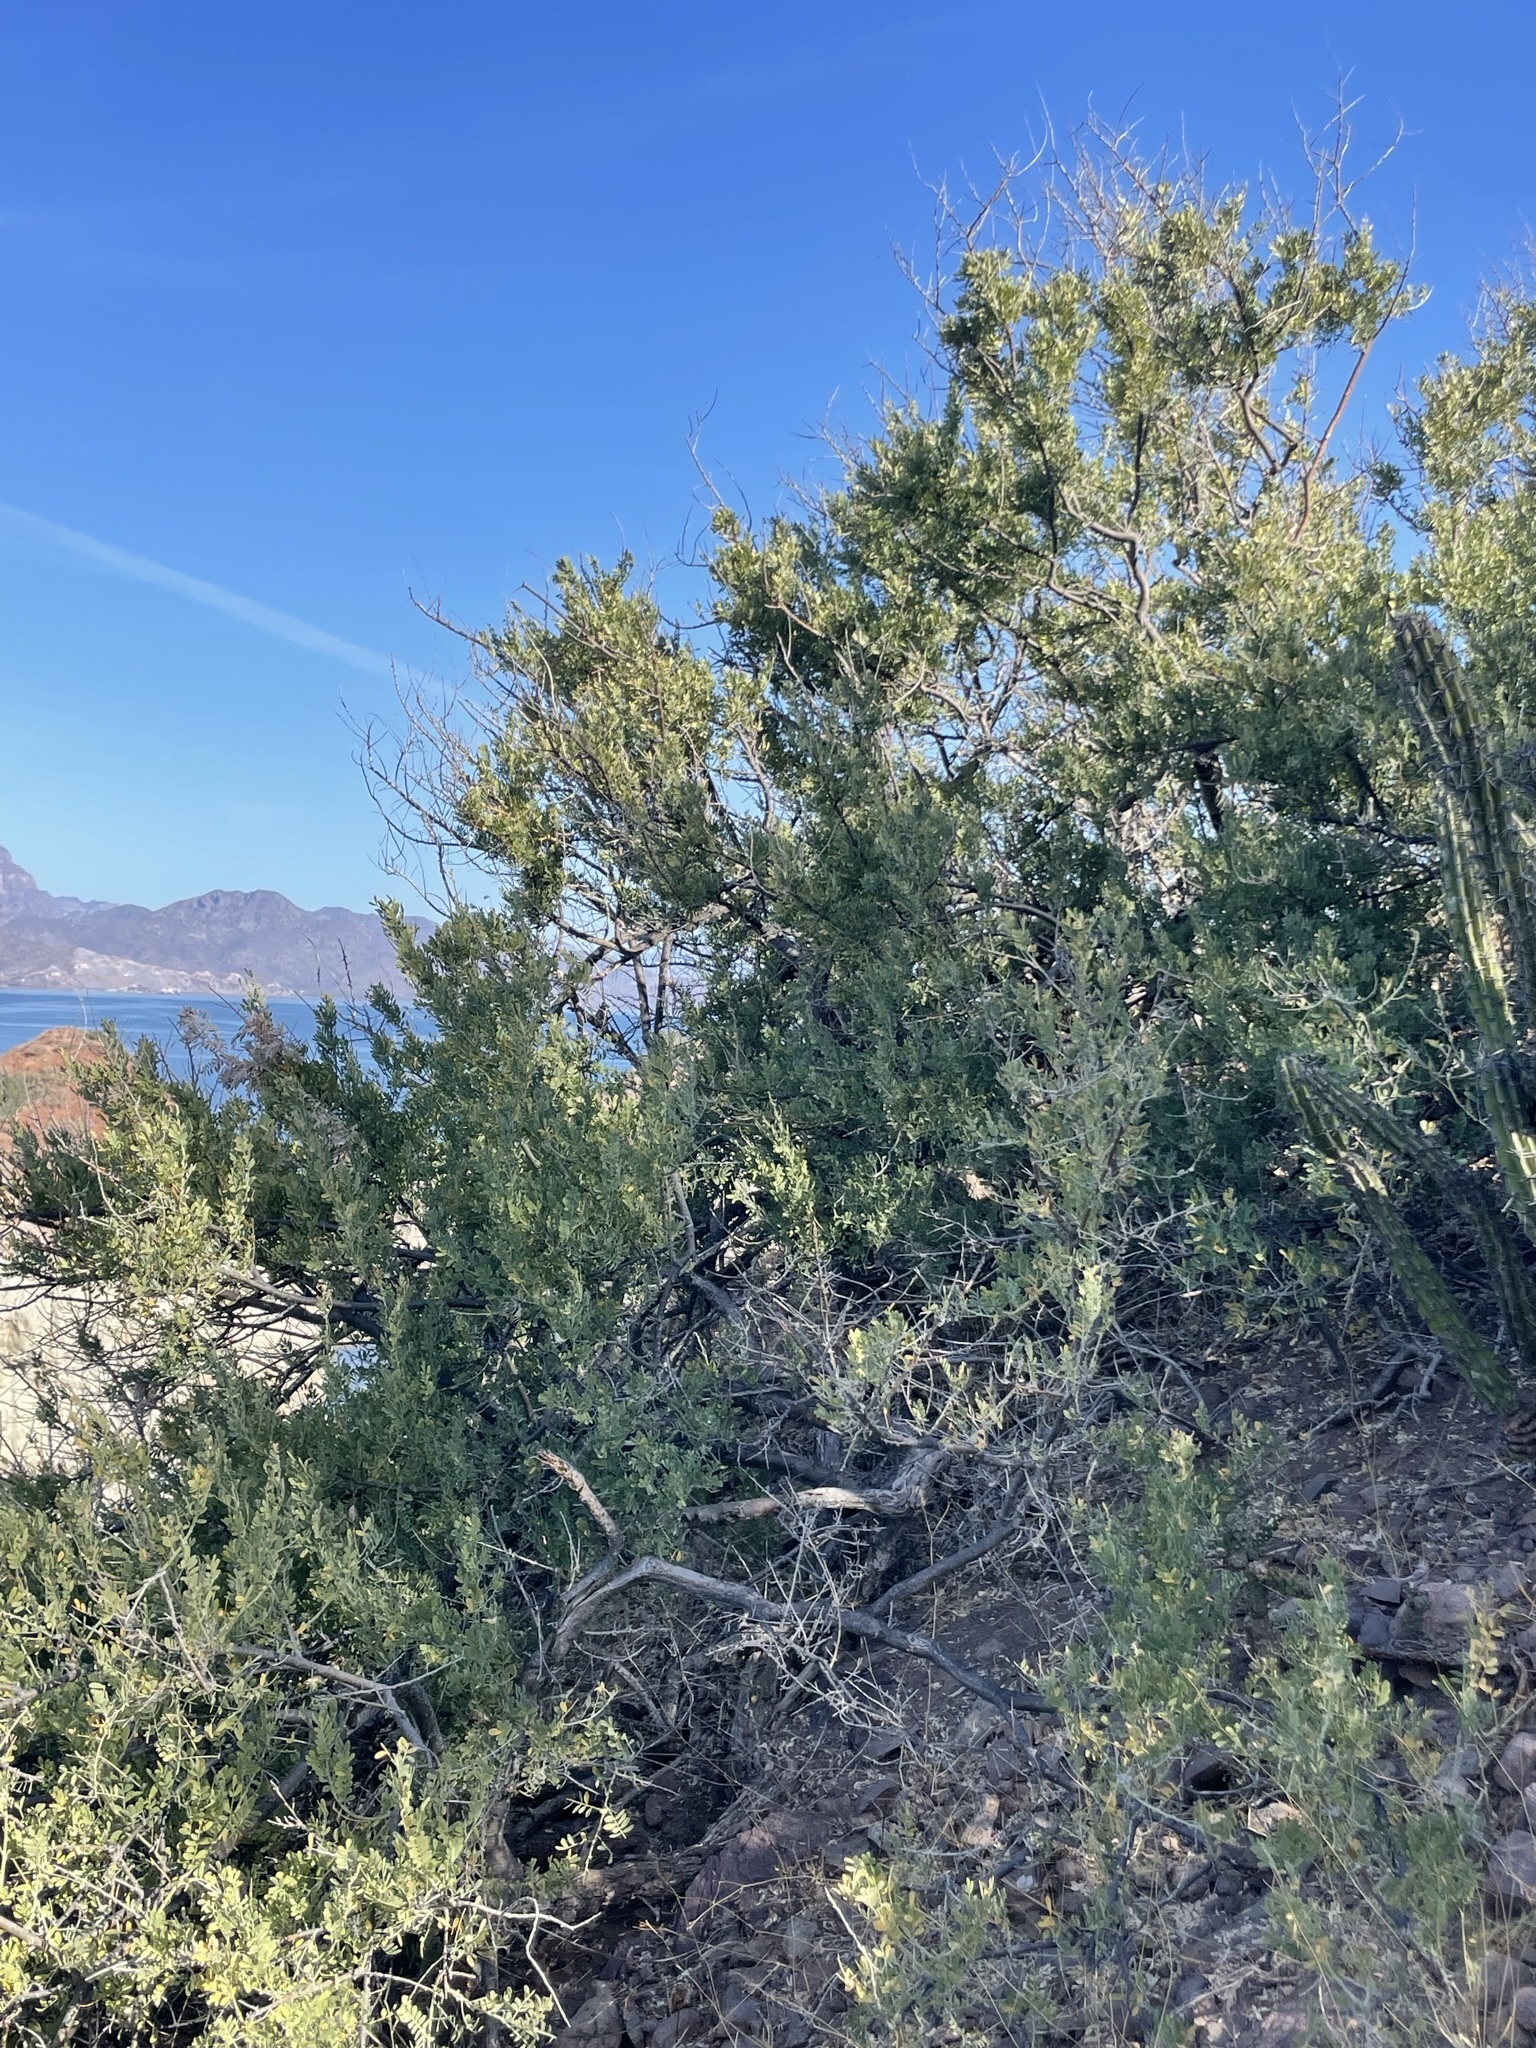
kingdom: Plantae
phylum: Tracheophyta
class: Magnoliopsida
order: Fabales
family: Fabaceae
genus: Olneya
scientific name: Olneya tesota
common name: Desert ironwood
